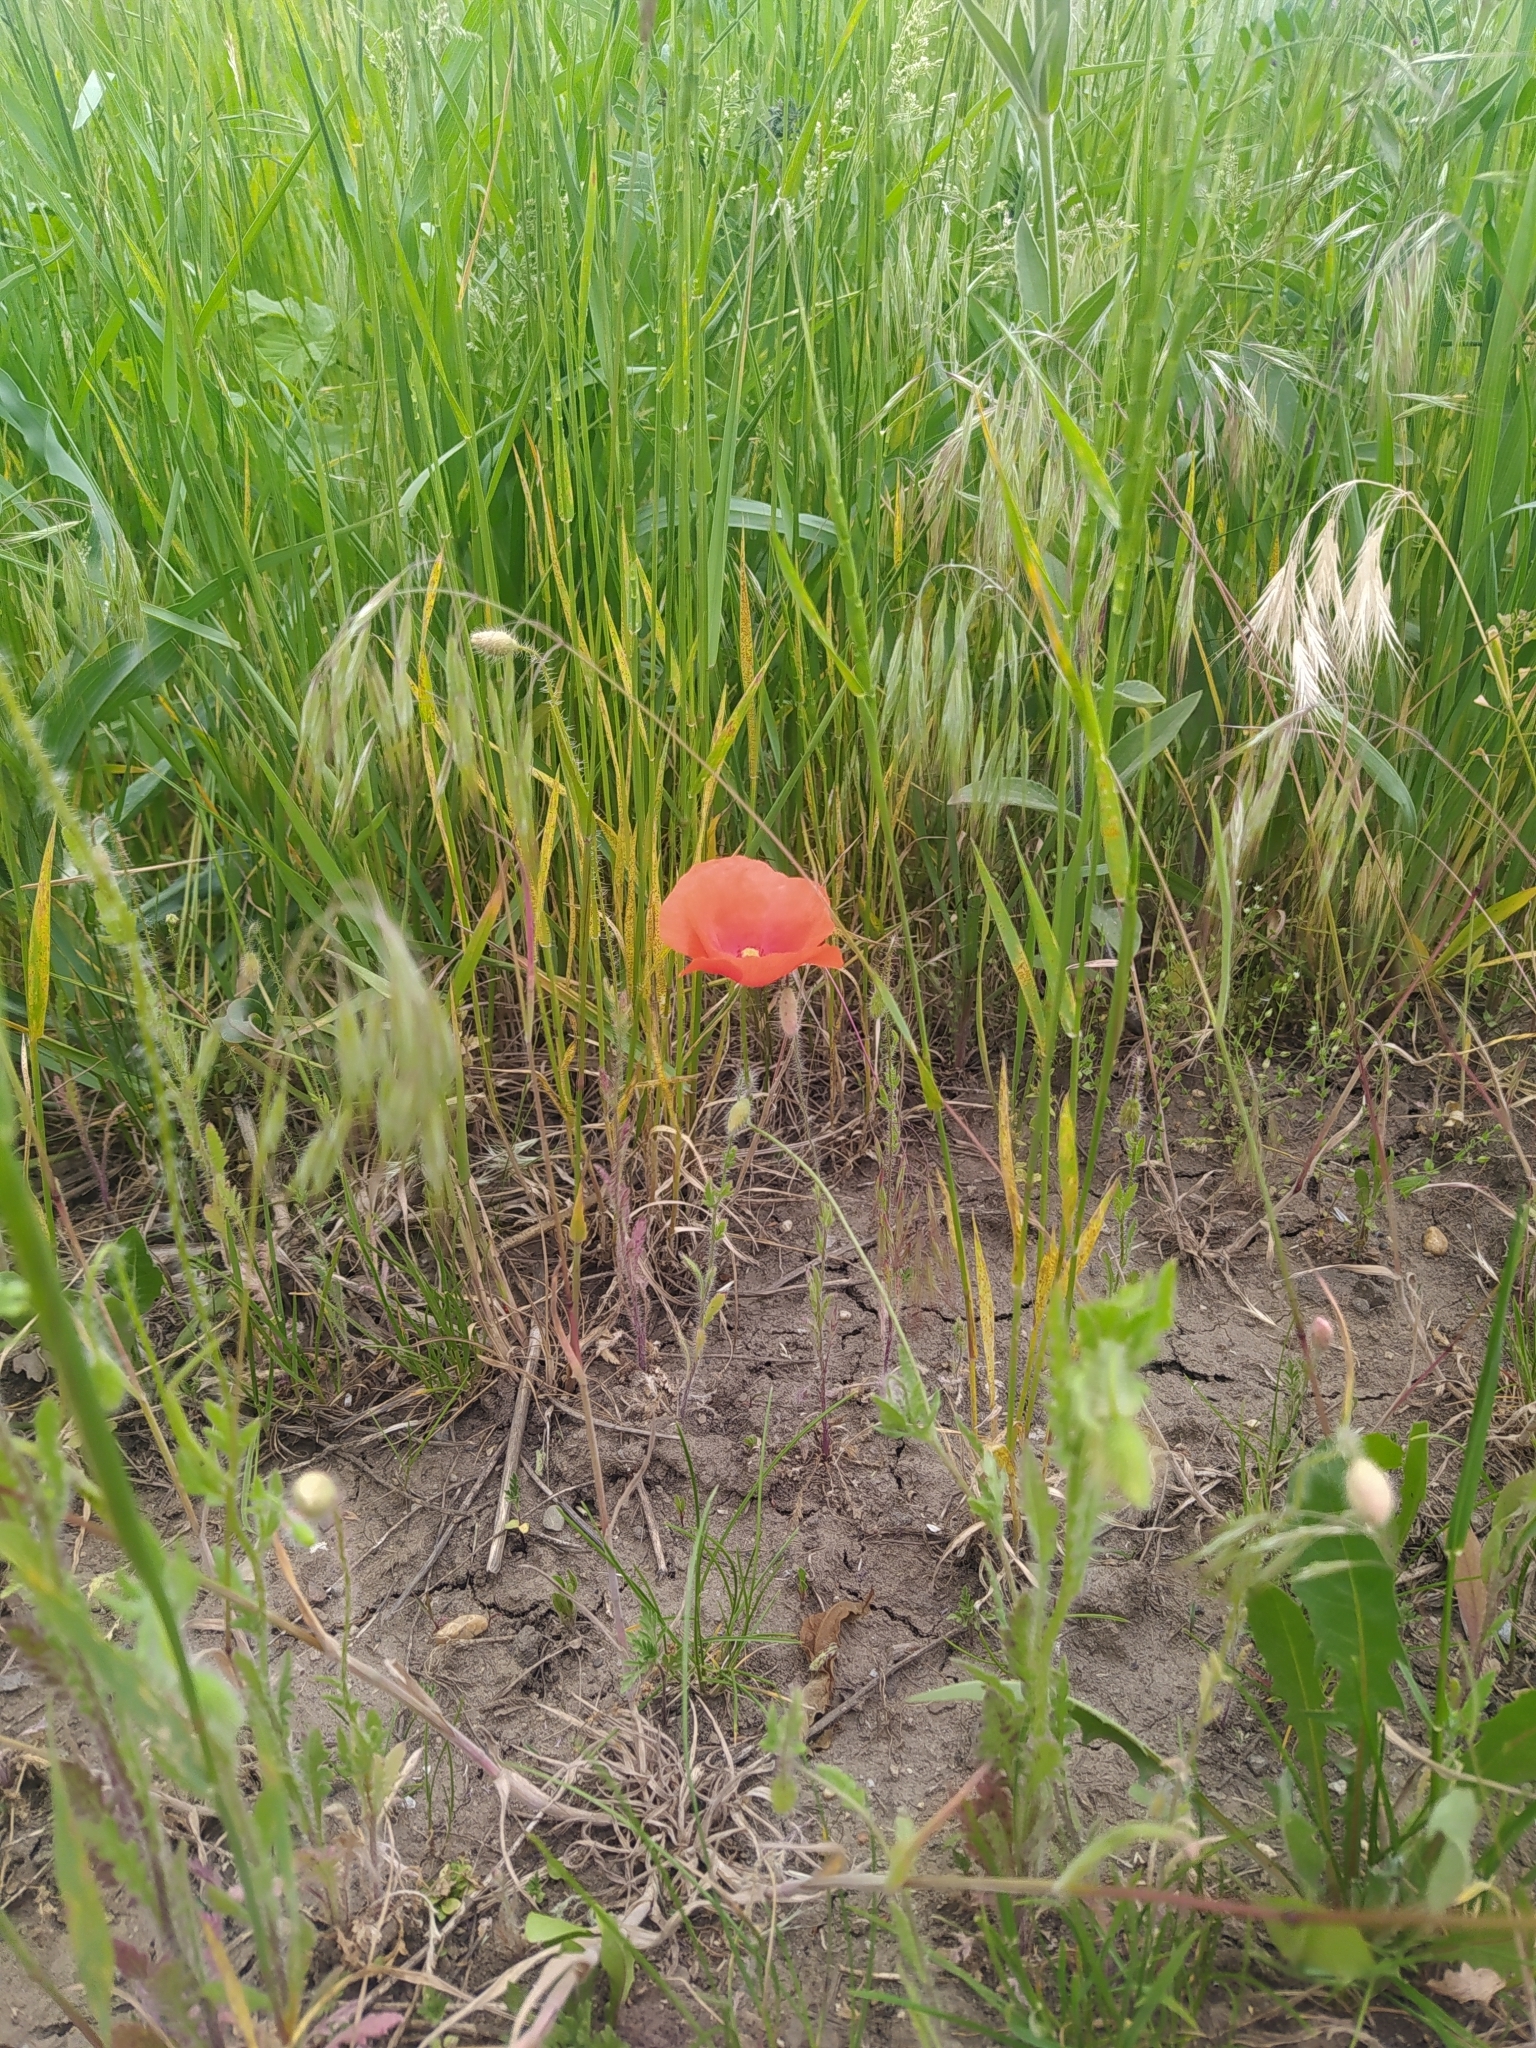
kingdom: Plantae
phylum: Tracheophyta
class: Magnoliopsida
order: Ranunculales
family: Papaveraceae
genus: Papaver
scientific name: Papaver rhoeas
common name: Corn poppy
